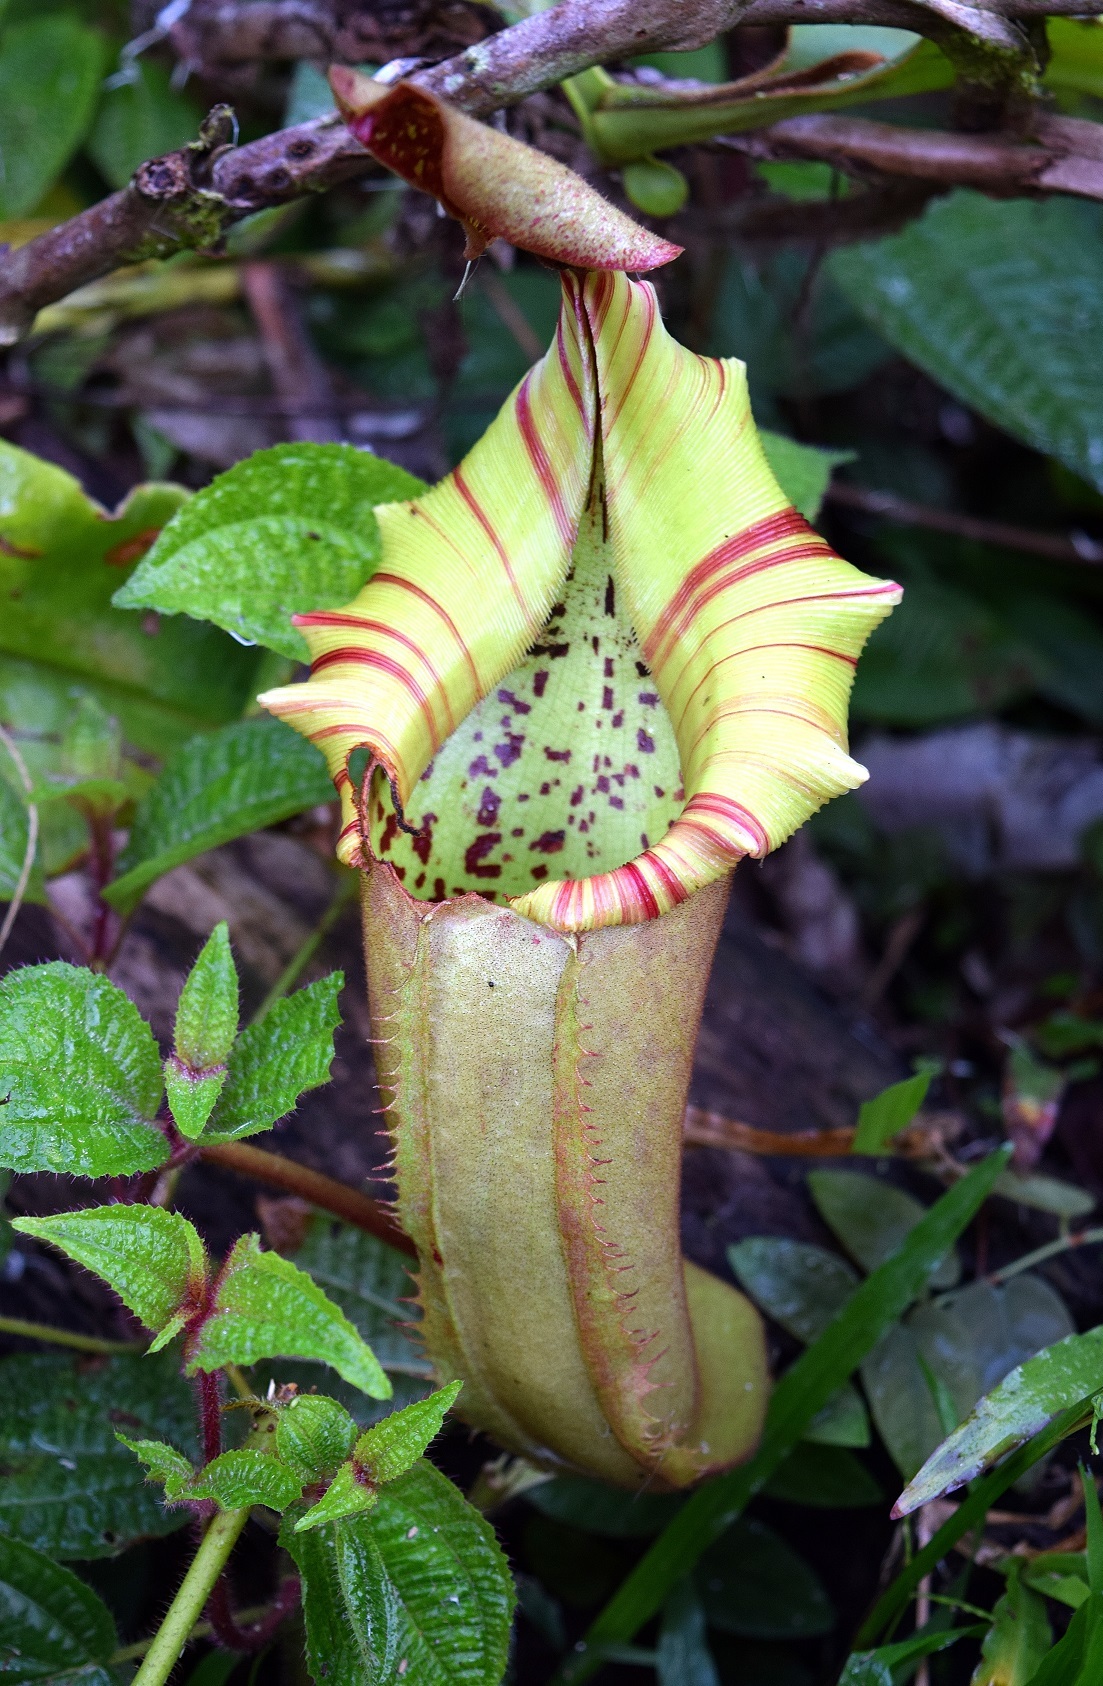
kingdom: Plantae
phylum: Tracheophyta
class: Magnoliopsida
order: Caryophyllales
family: Nepenthaceae
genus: Nepenthes
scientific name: Nepenthes veitchii
